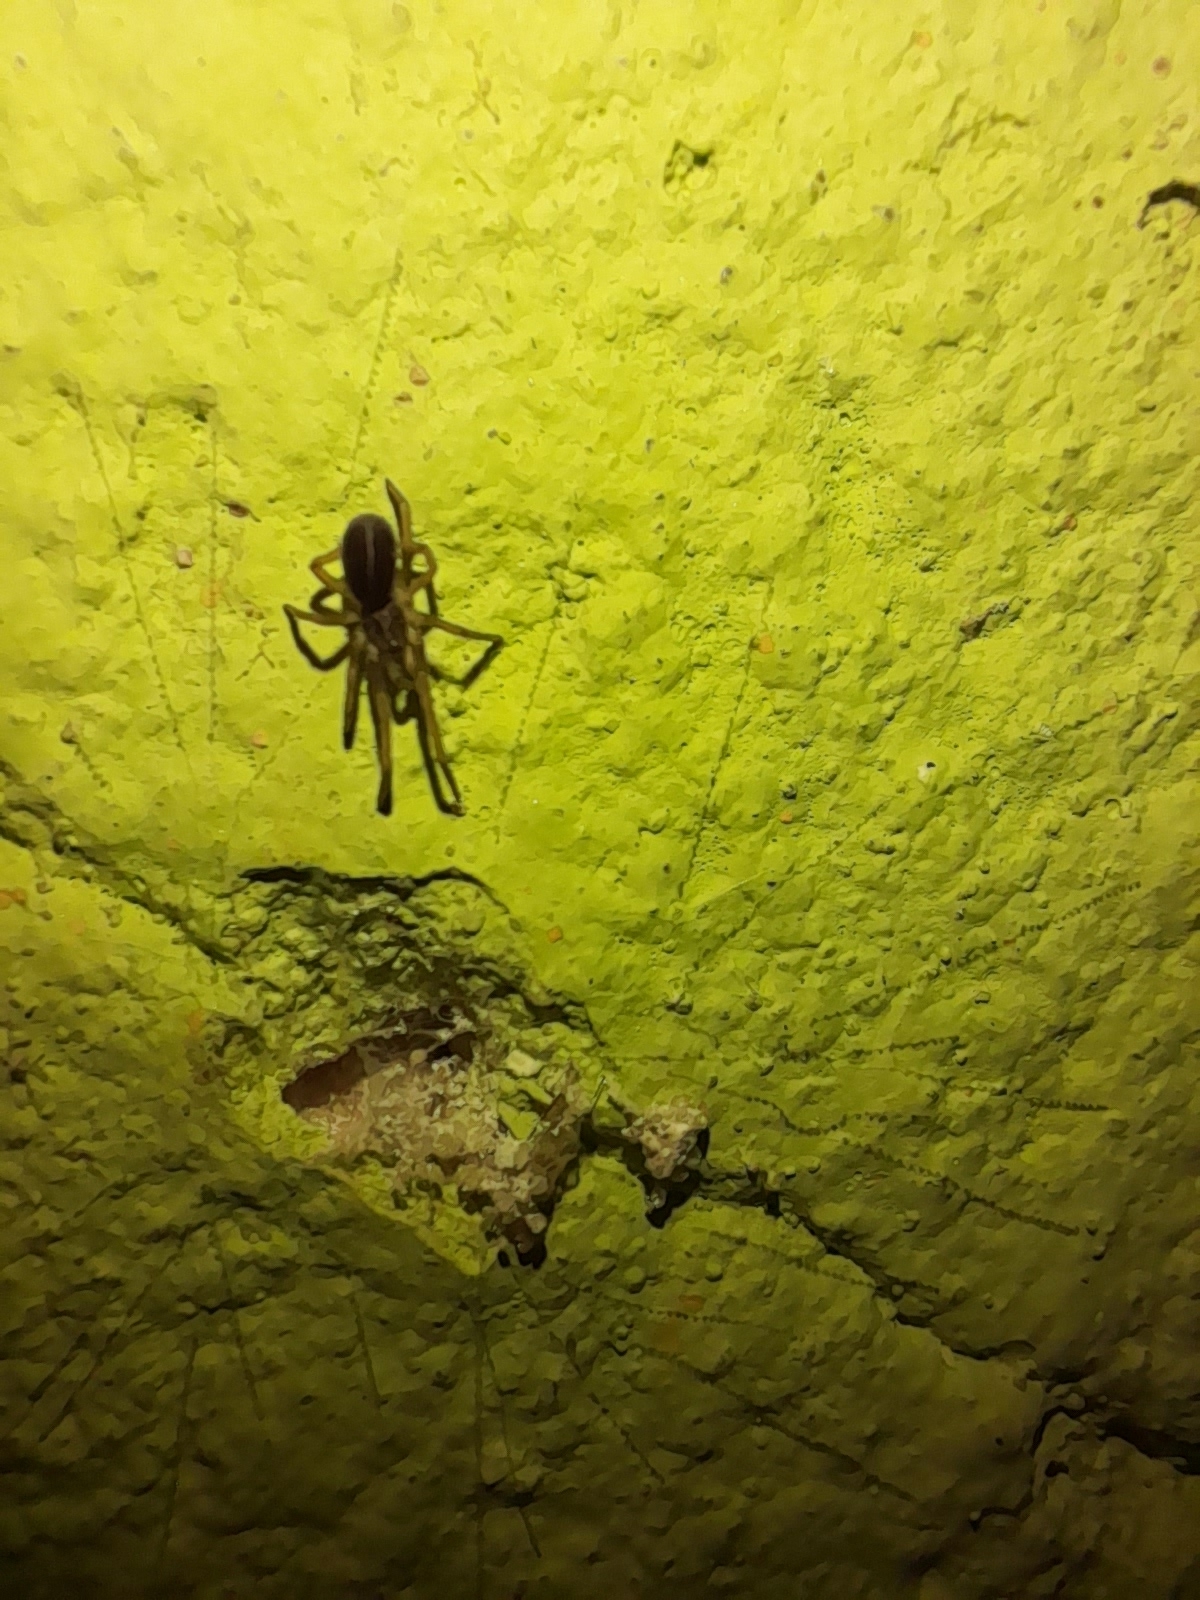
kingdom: Animalia
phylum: Arthropoda
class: Arachnida
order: Araneae
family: Filistatidae
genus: Kukulcania
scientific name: Kukulcania hibernalis
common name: Crevice weaver
